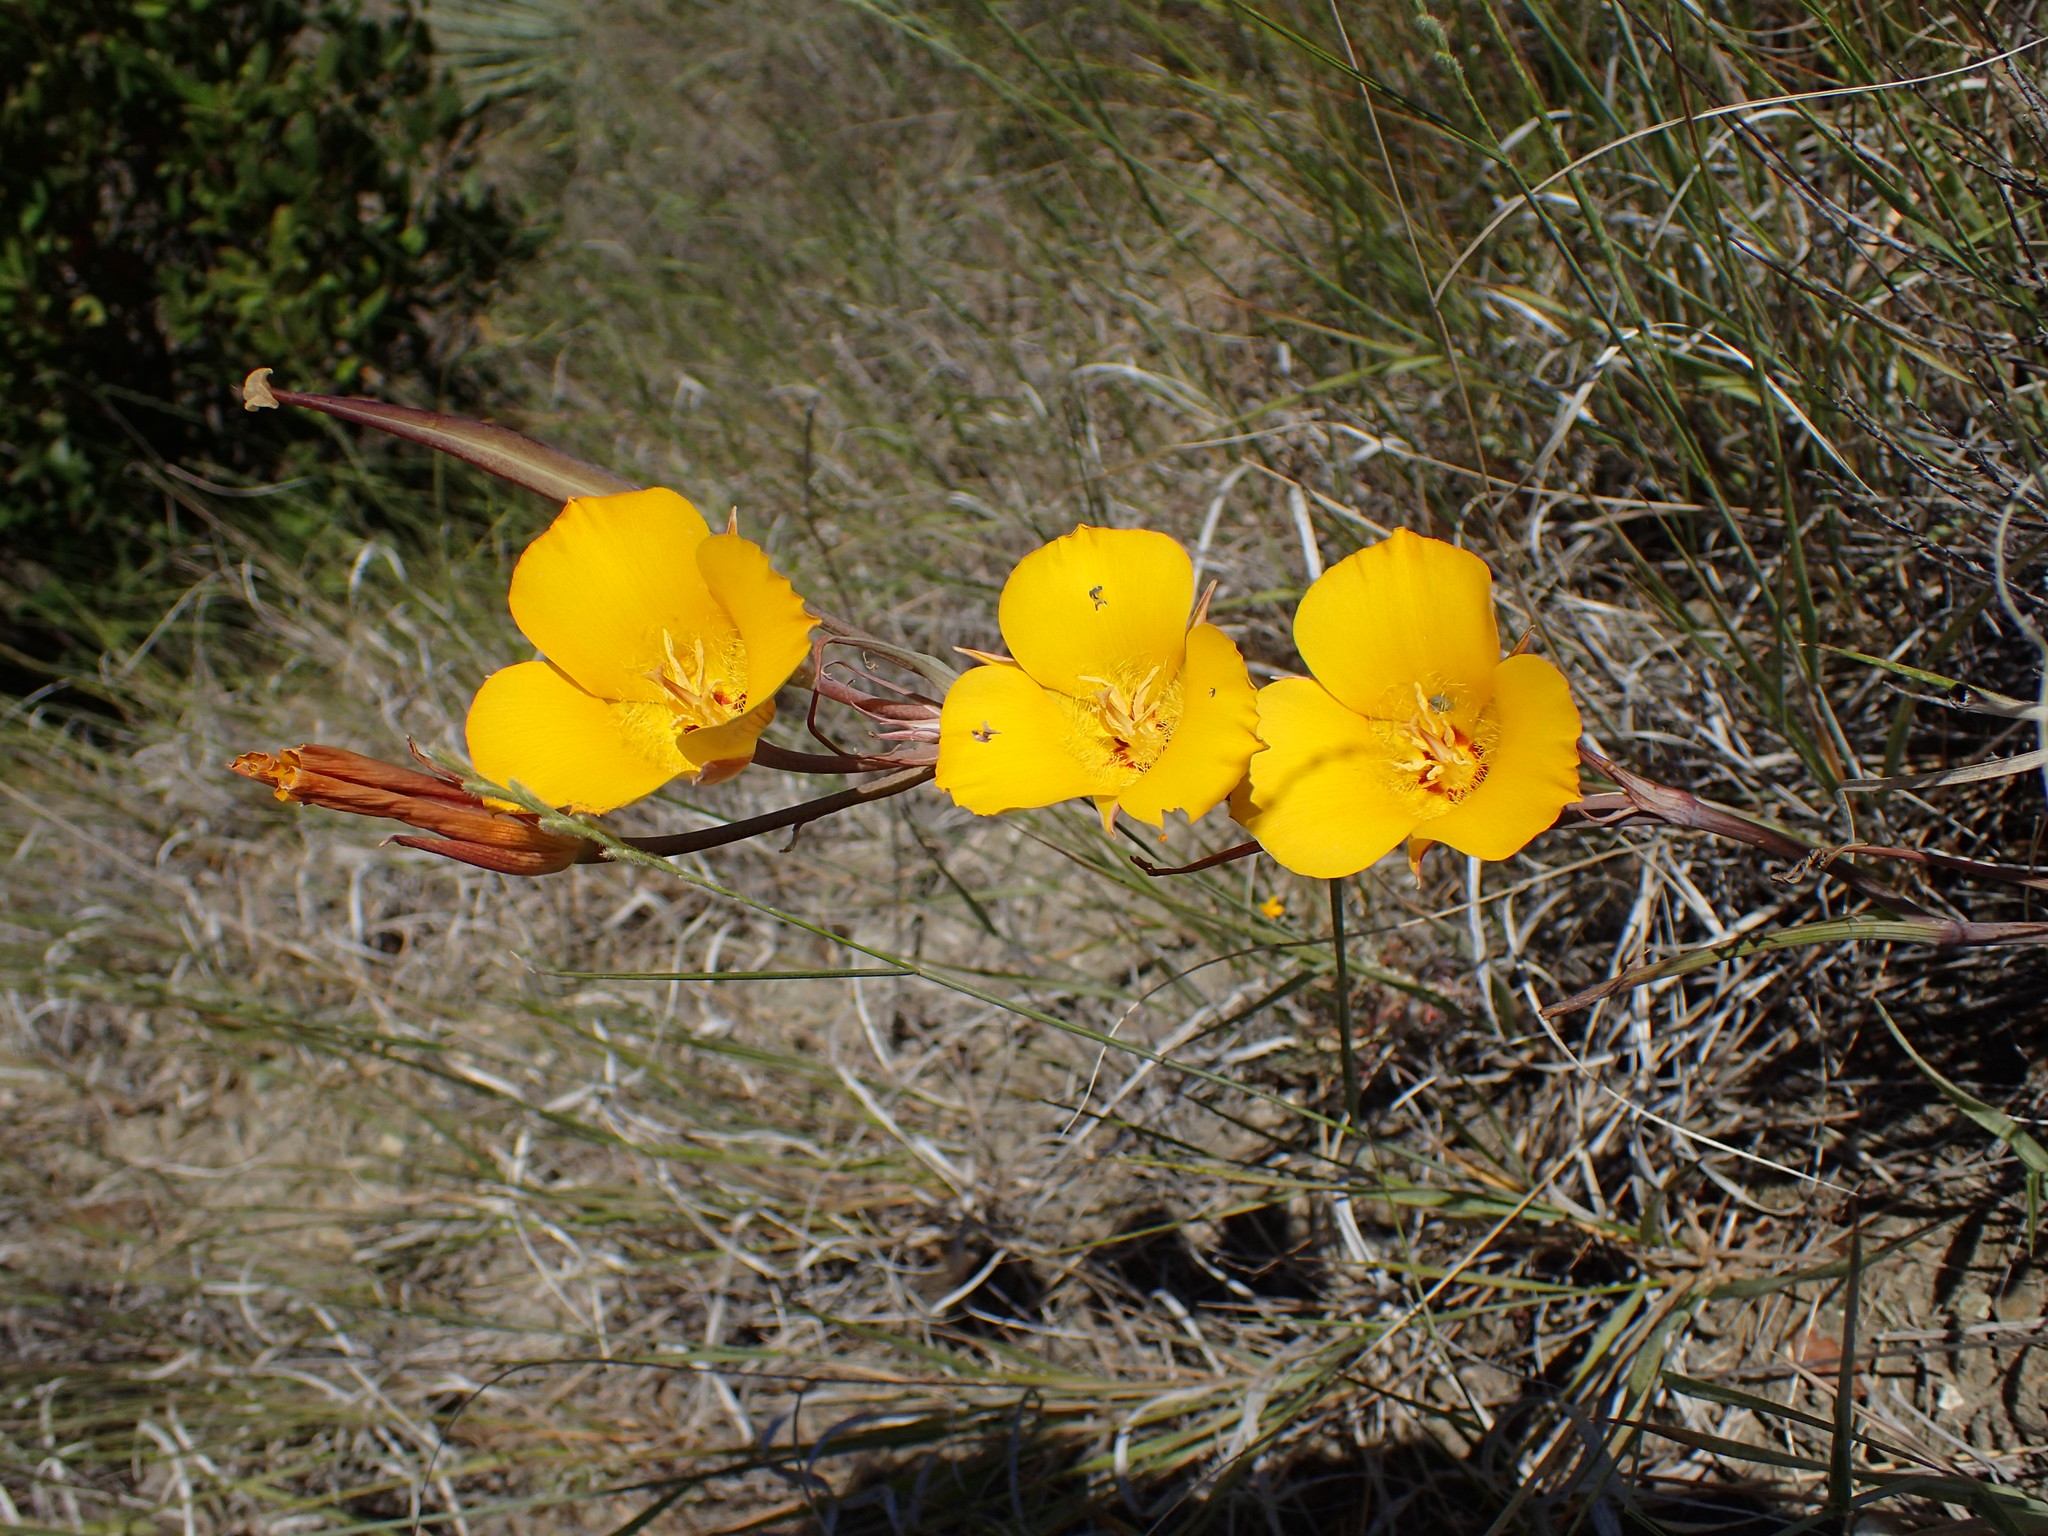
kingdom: Plantae
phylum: Tracheophyta
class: Liliopsida
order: Liliales
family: Liliaceae
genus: Calochortus
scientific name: Calochortus clavatus
